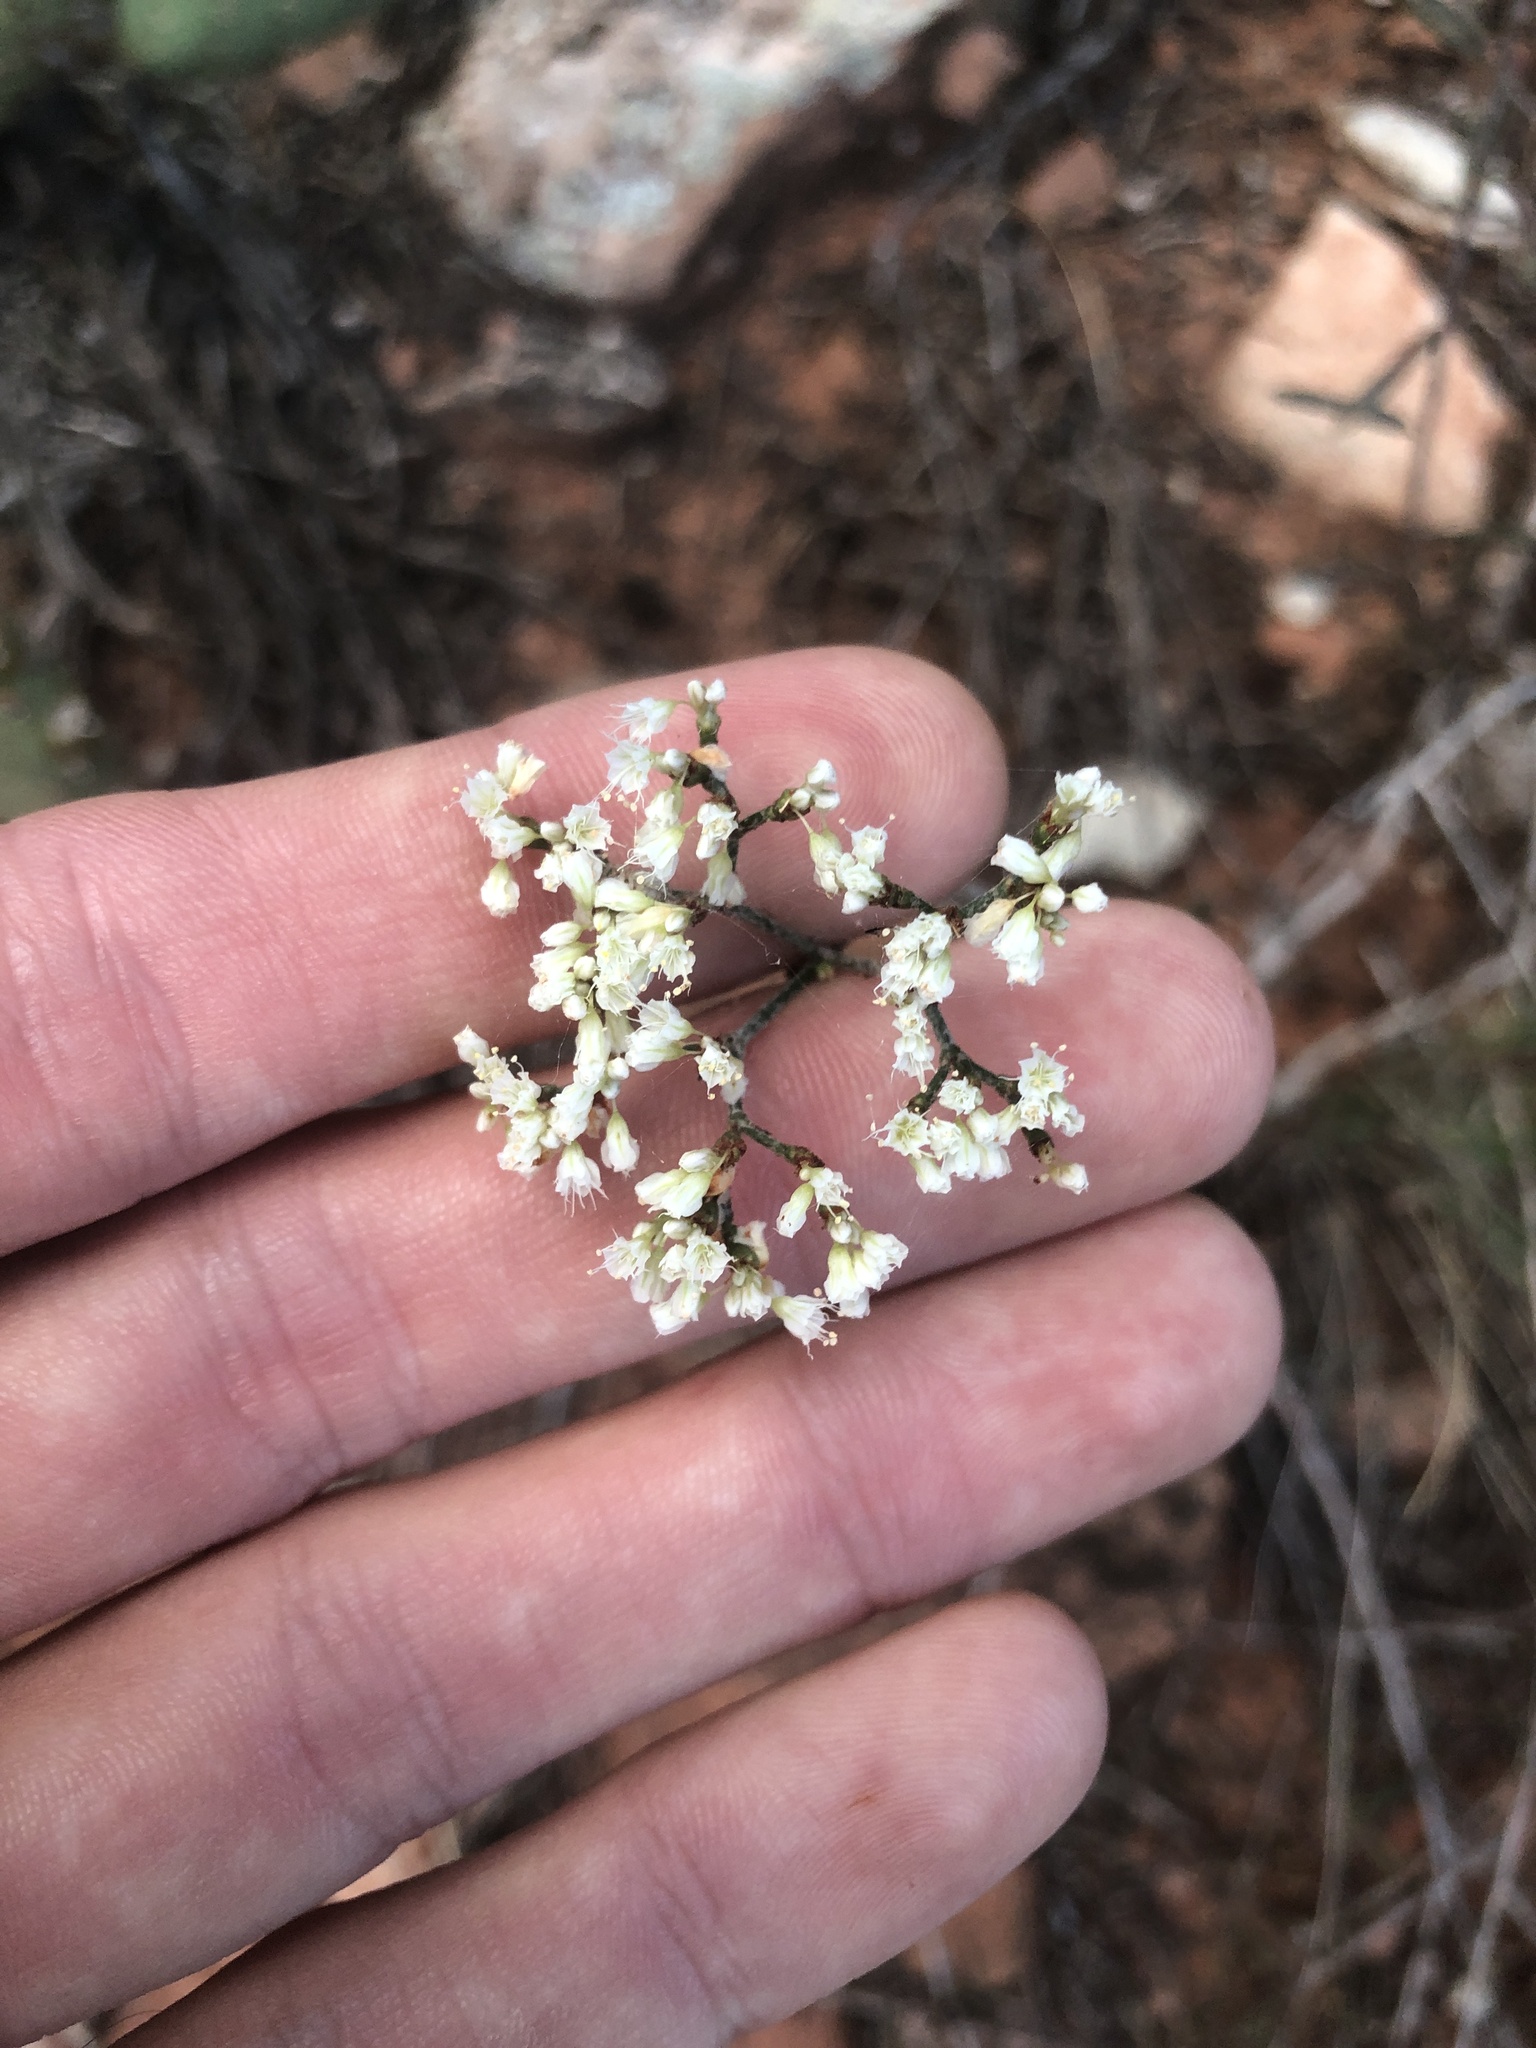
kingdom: Plantae
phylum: Tracheophyta
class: Magnoliopsida
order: Caryophyllales
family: Polygonaceae
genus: Eriogonum
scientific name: Eriogonum microtheca
